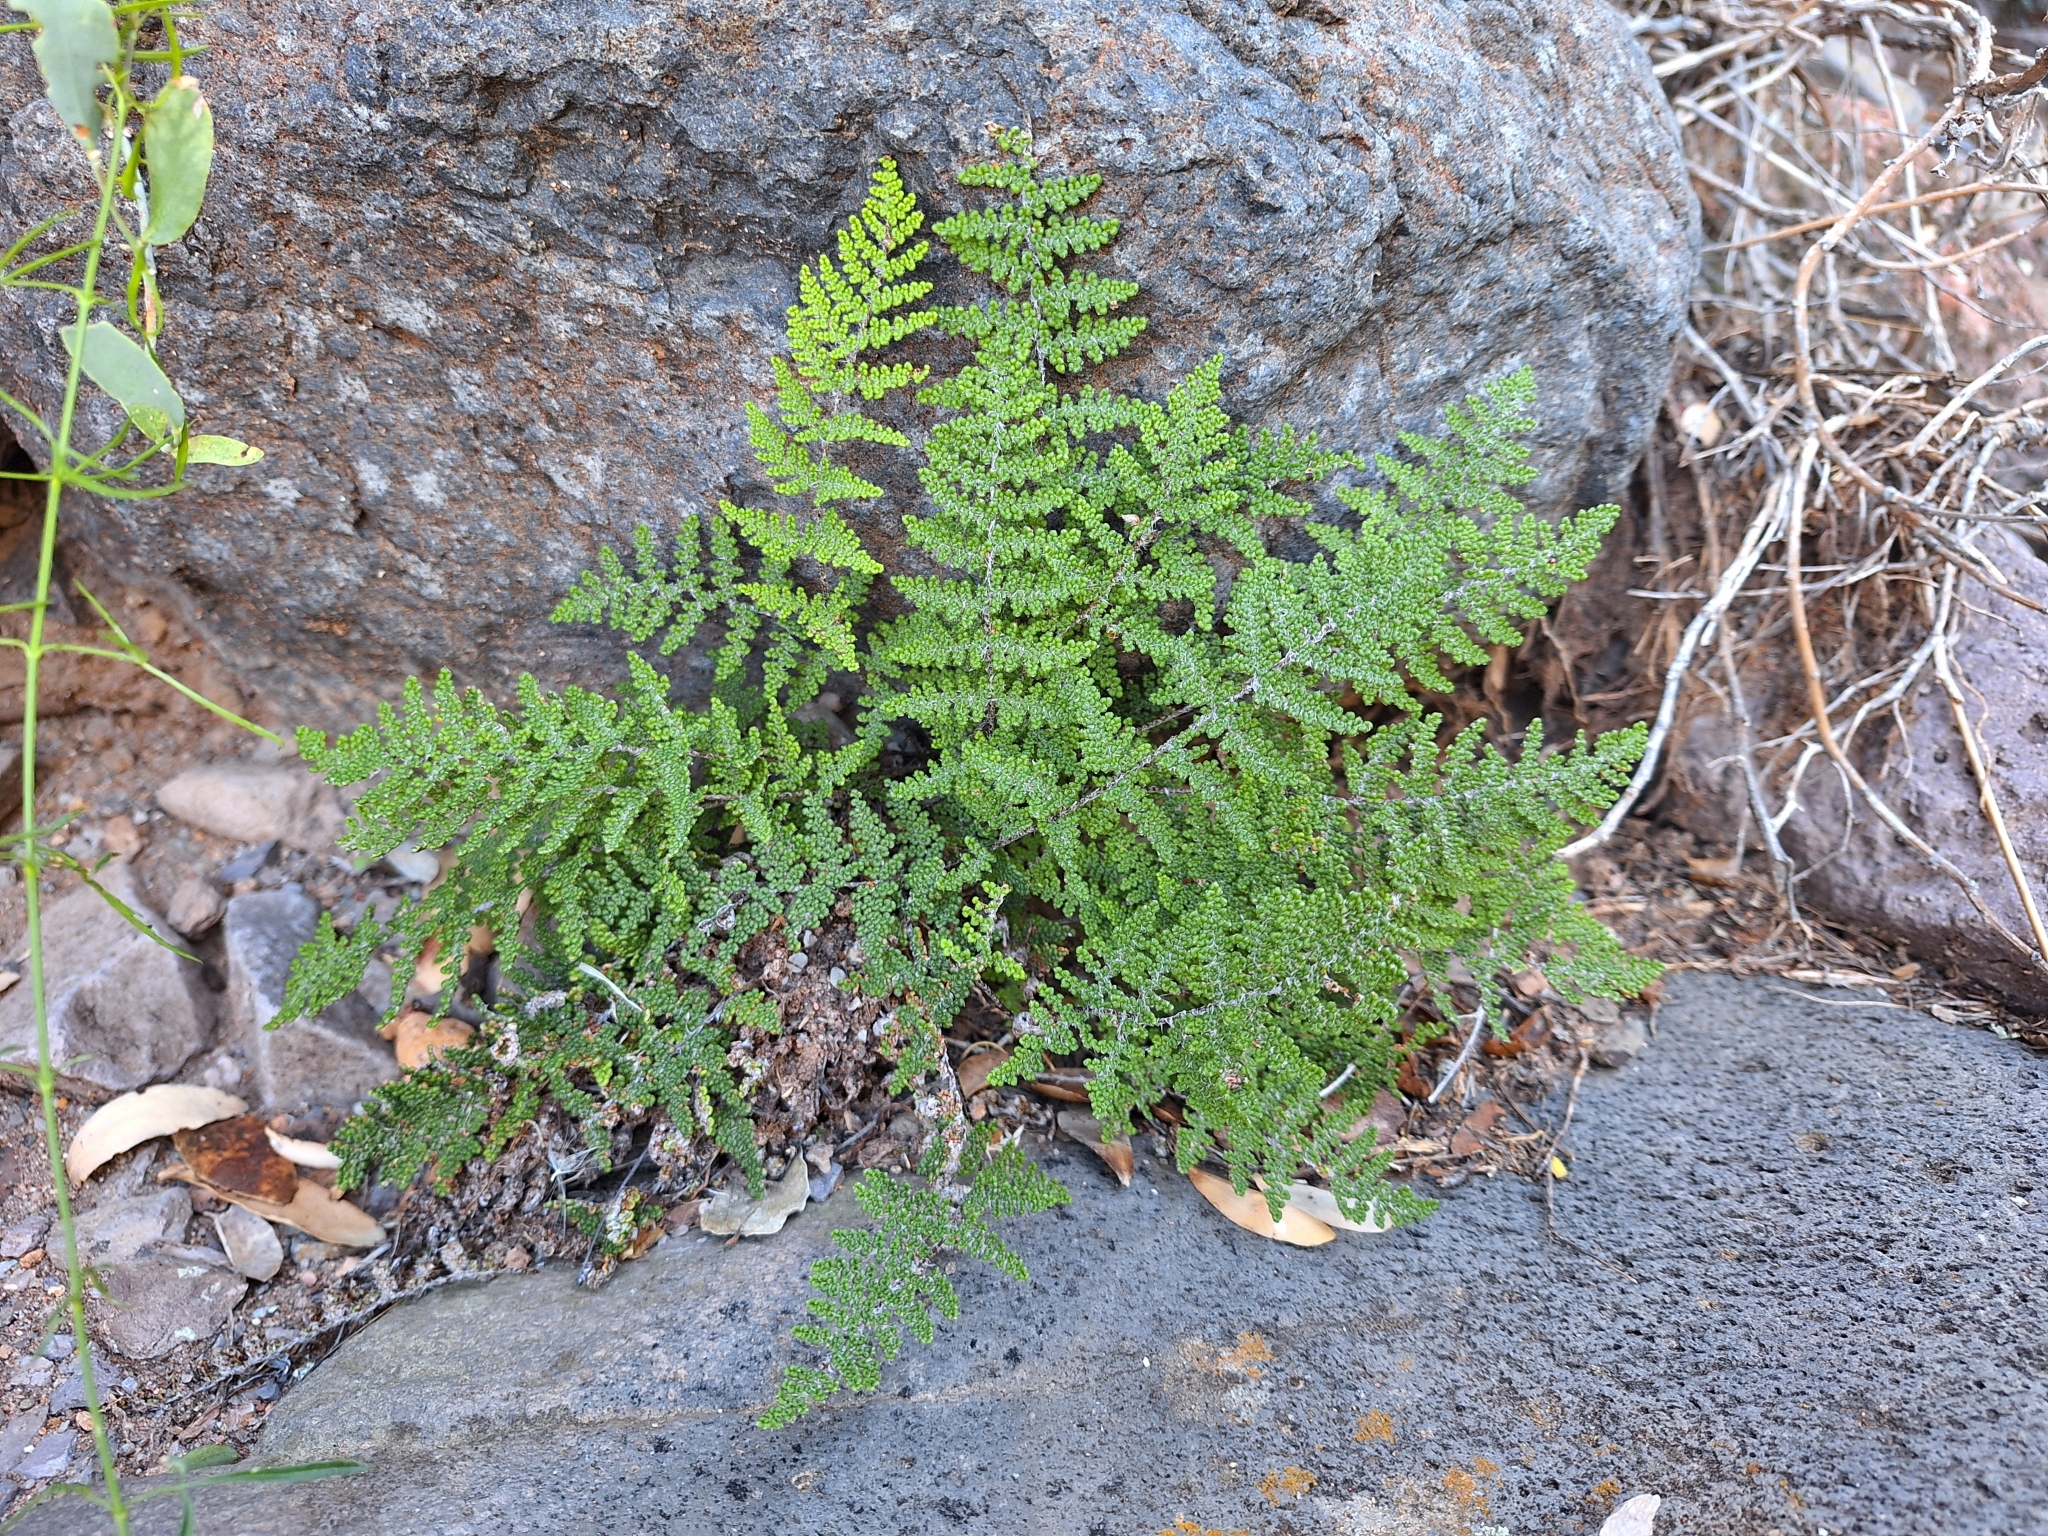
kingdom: Plantae
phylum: Tracheophyta
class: Polypodiopsida
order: Polypodiales
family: Pteridaceae
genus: Myriopteris
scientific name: Myriopteris covillei
